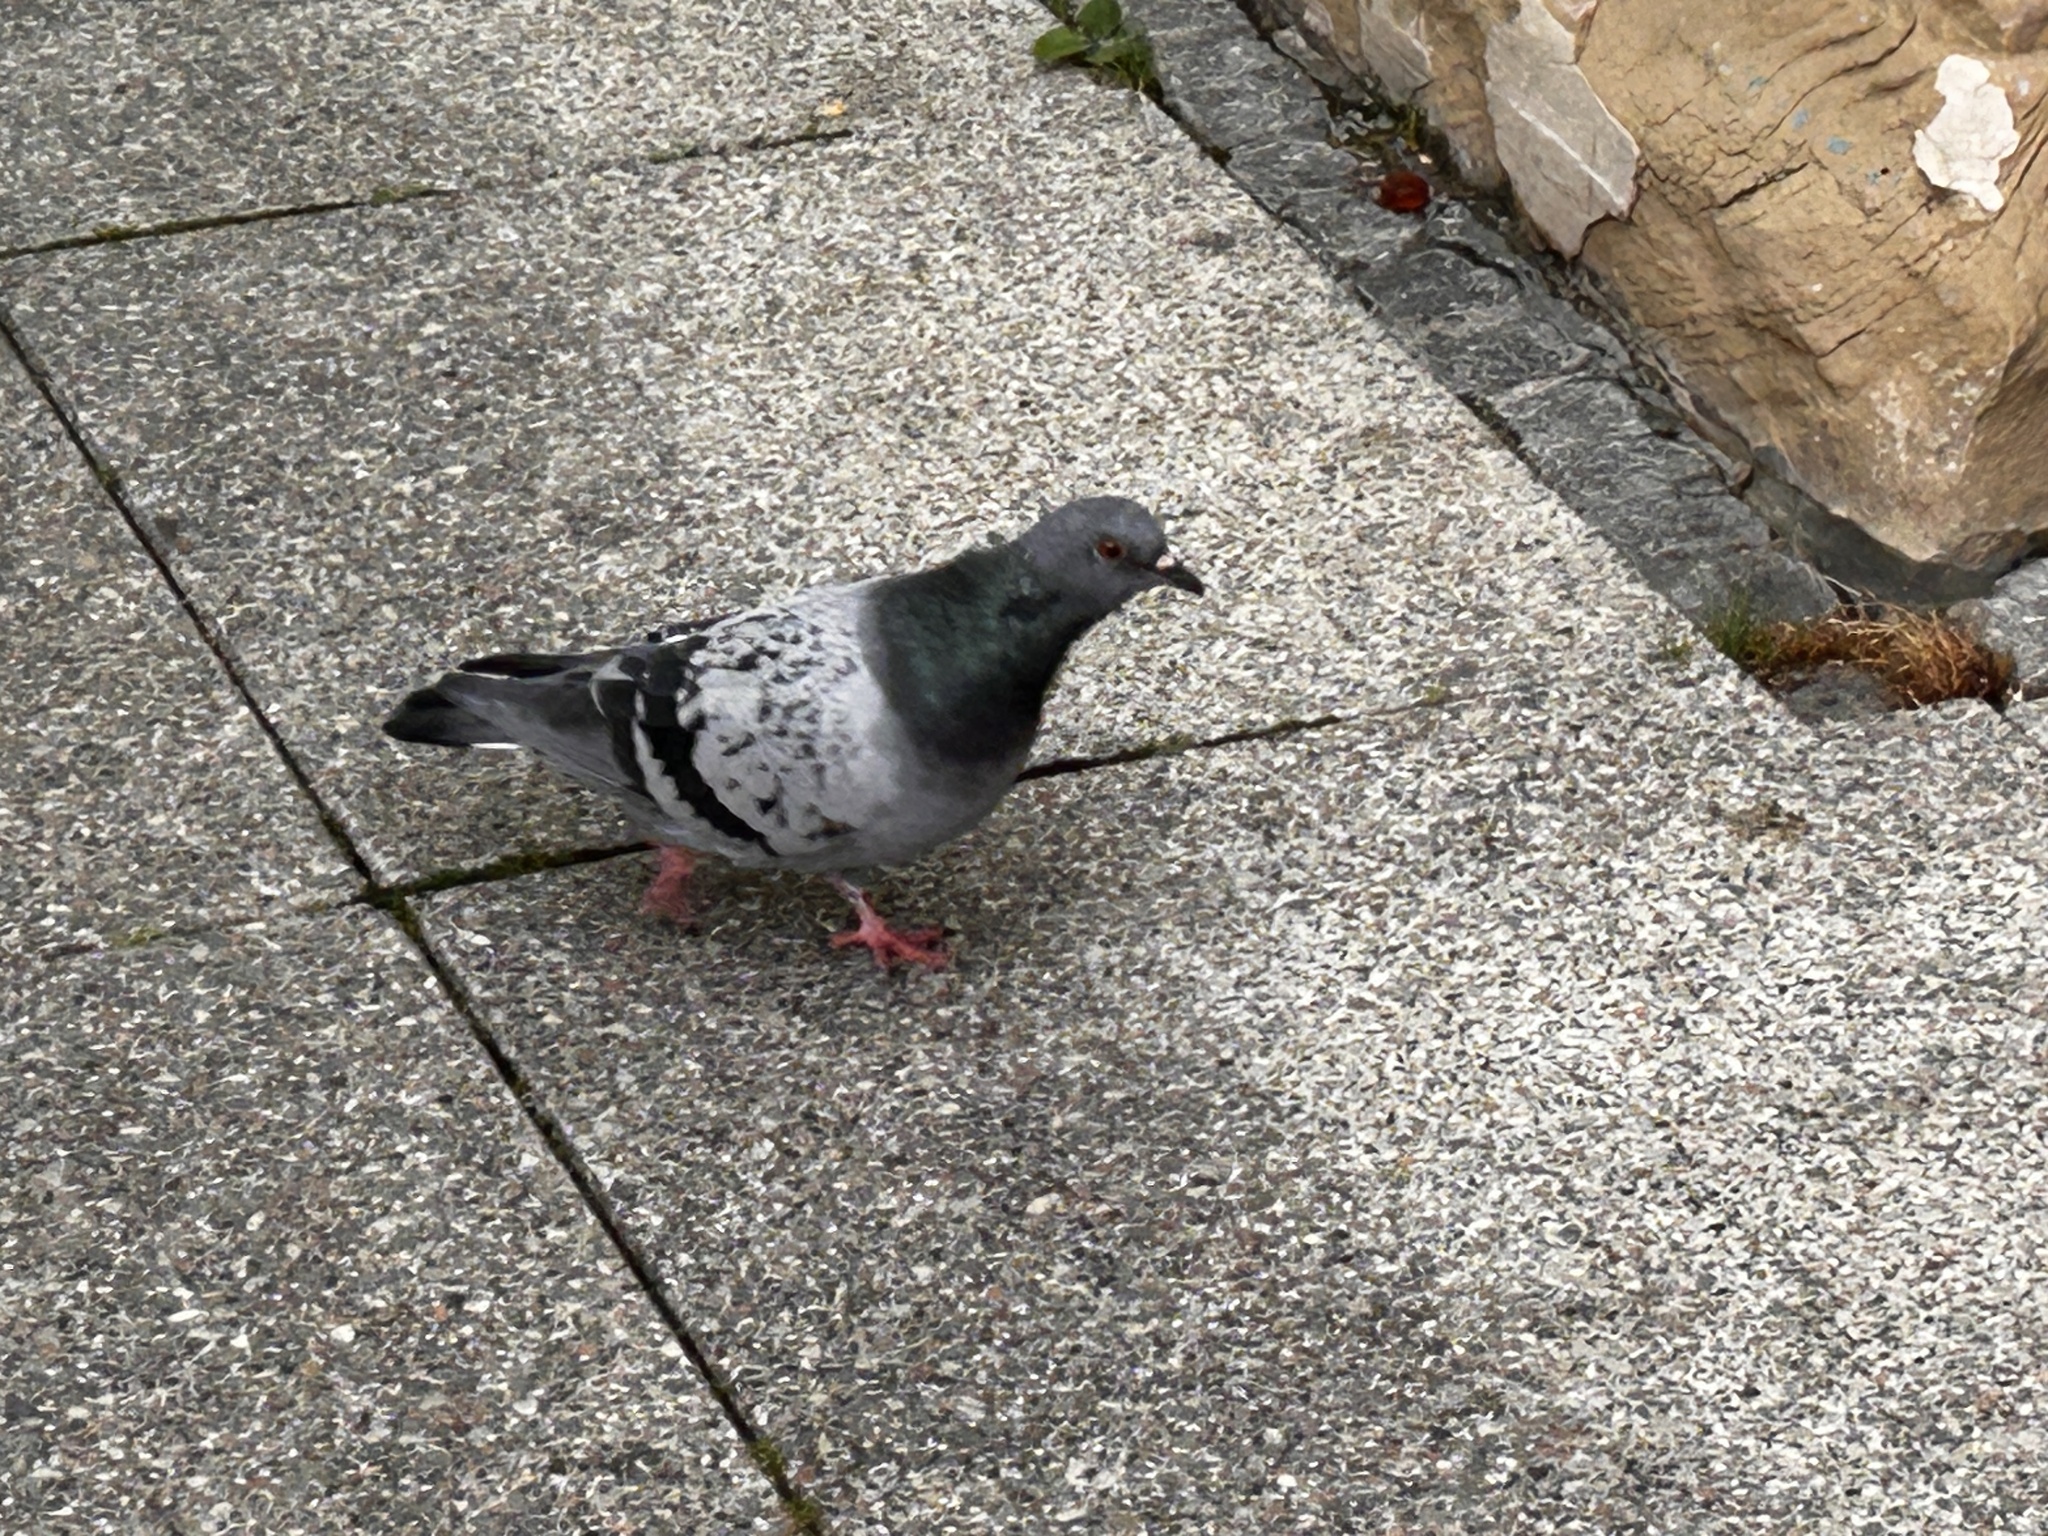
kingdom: Animalia
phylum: Chordata
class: Aves
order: Columbiformes
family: Columbidae
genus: Columba
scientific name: Columba livia
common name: Rock pigeon
